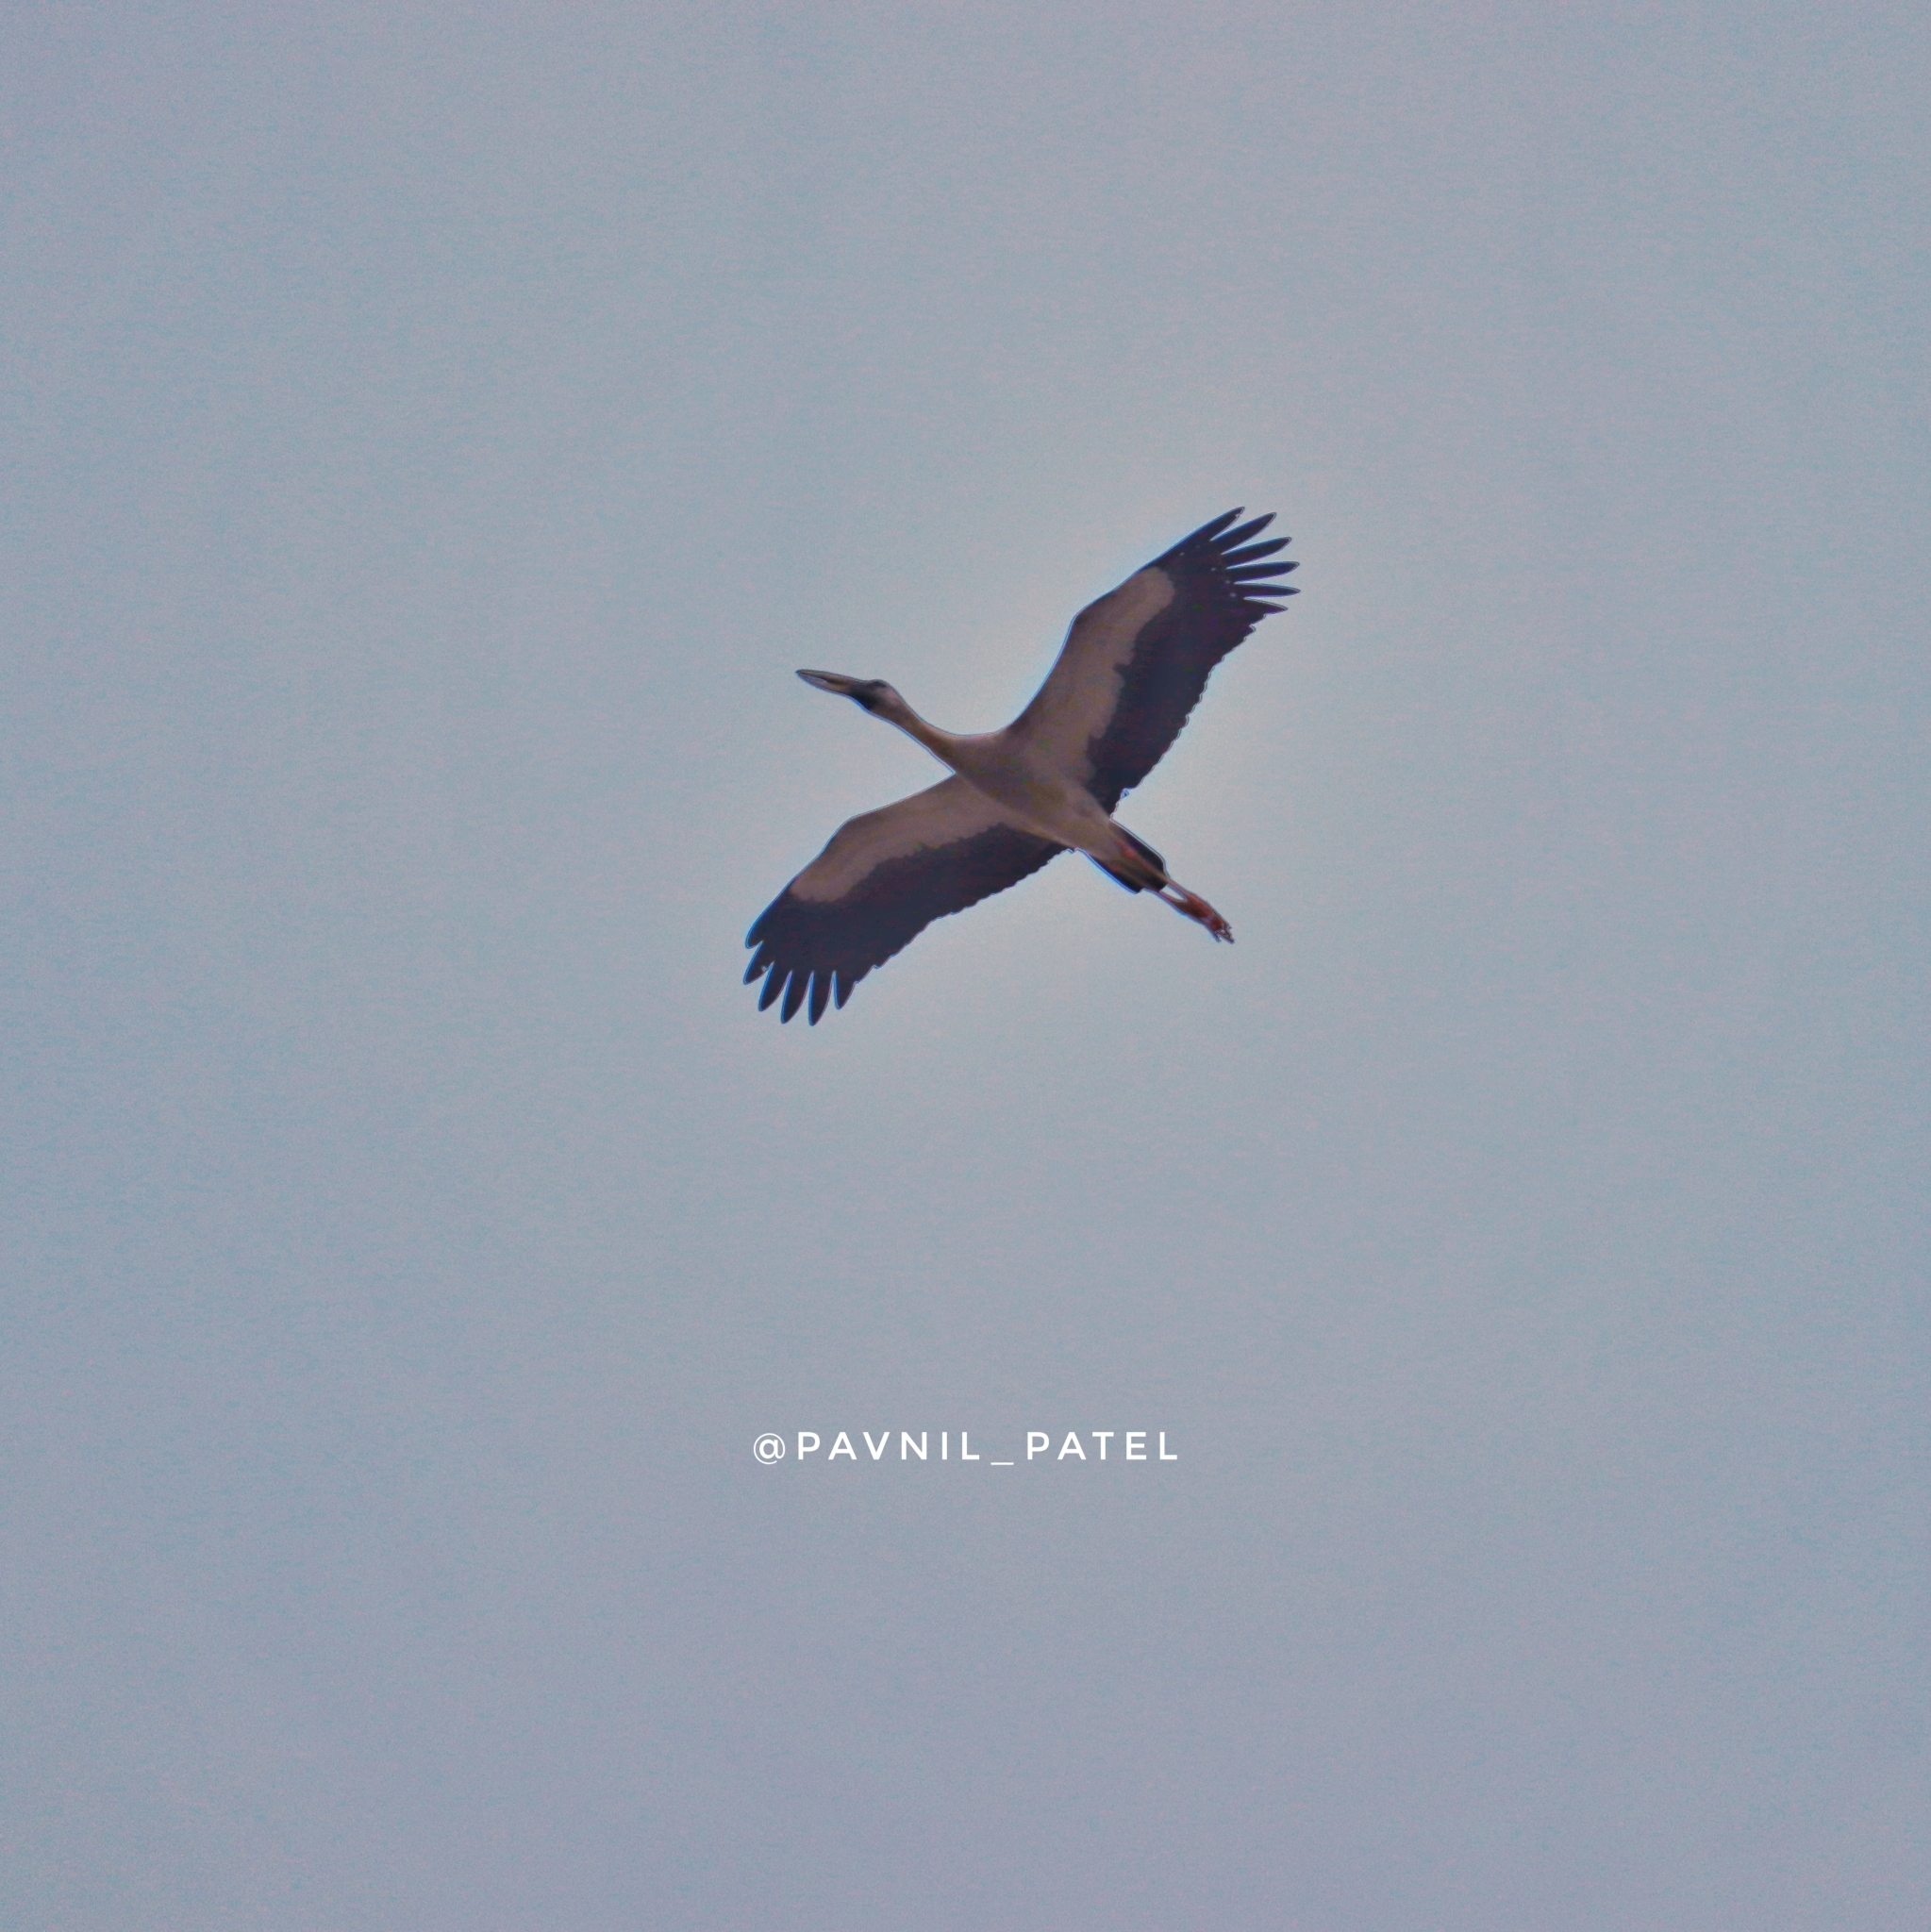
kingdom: Animalia
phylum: Chordata
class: Aves
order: Ciconiiformes
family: Ciconiidae
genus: Anastomus
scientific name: Anastomus oscitans
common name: Asian openbill
